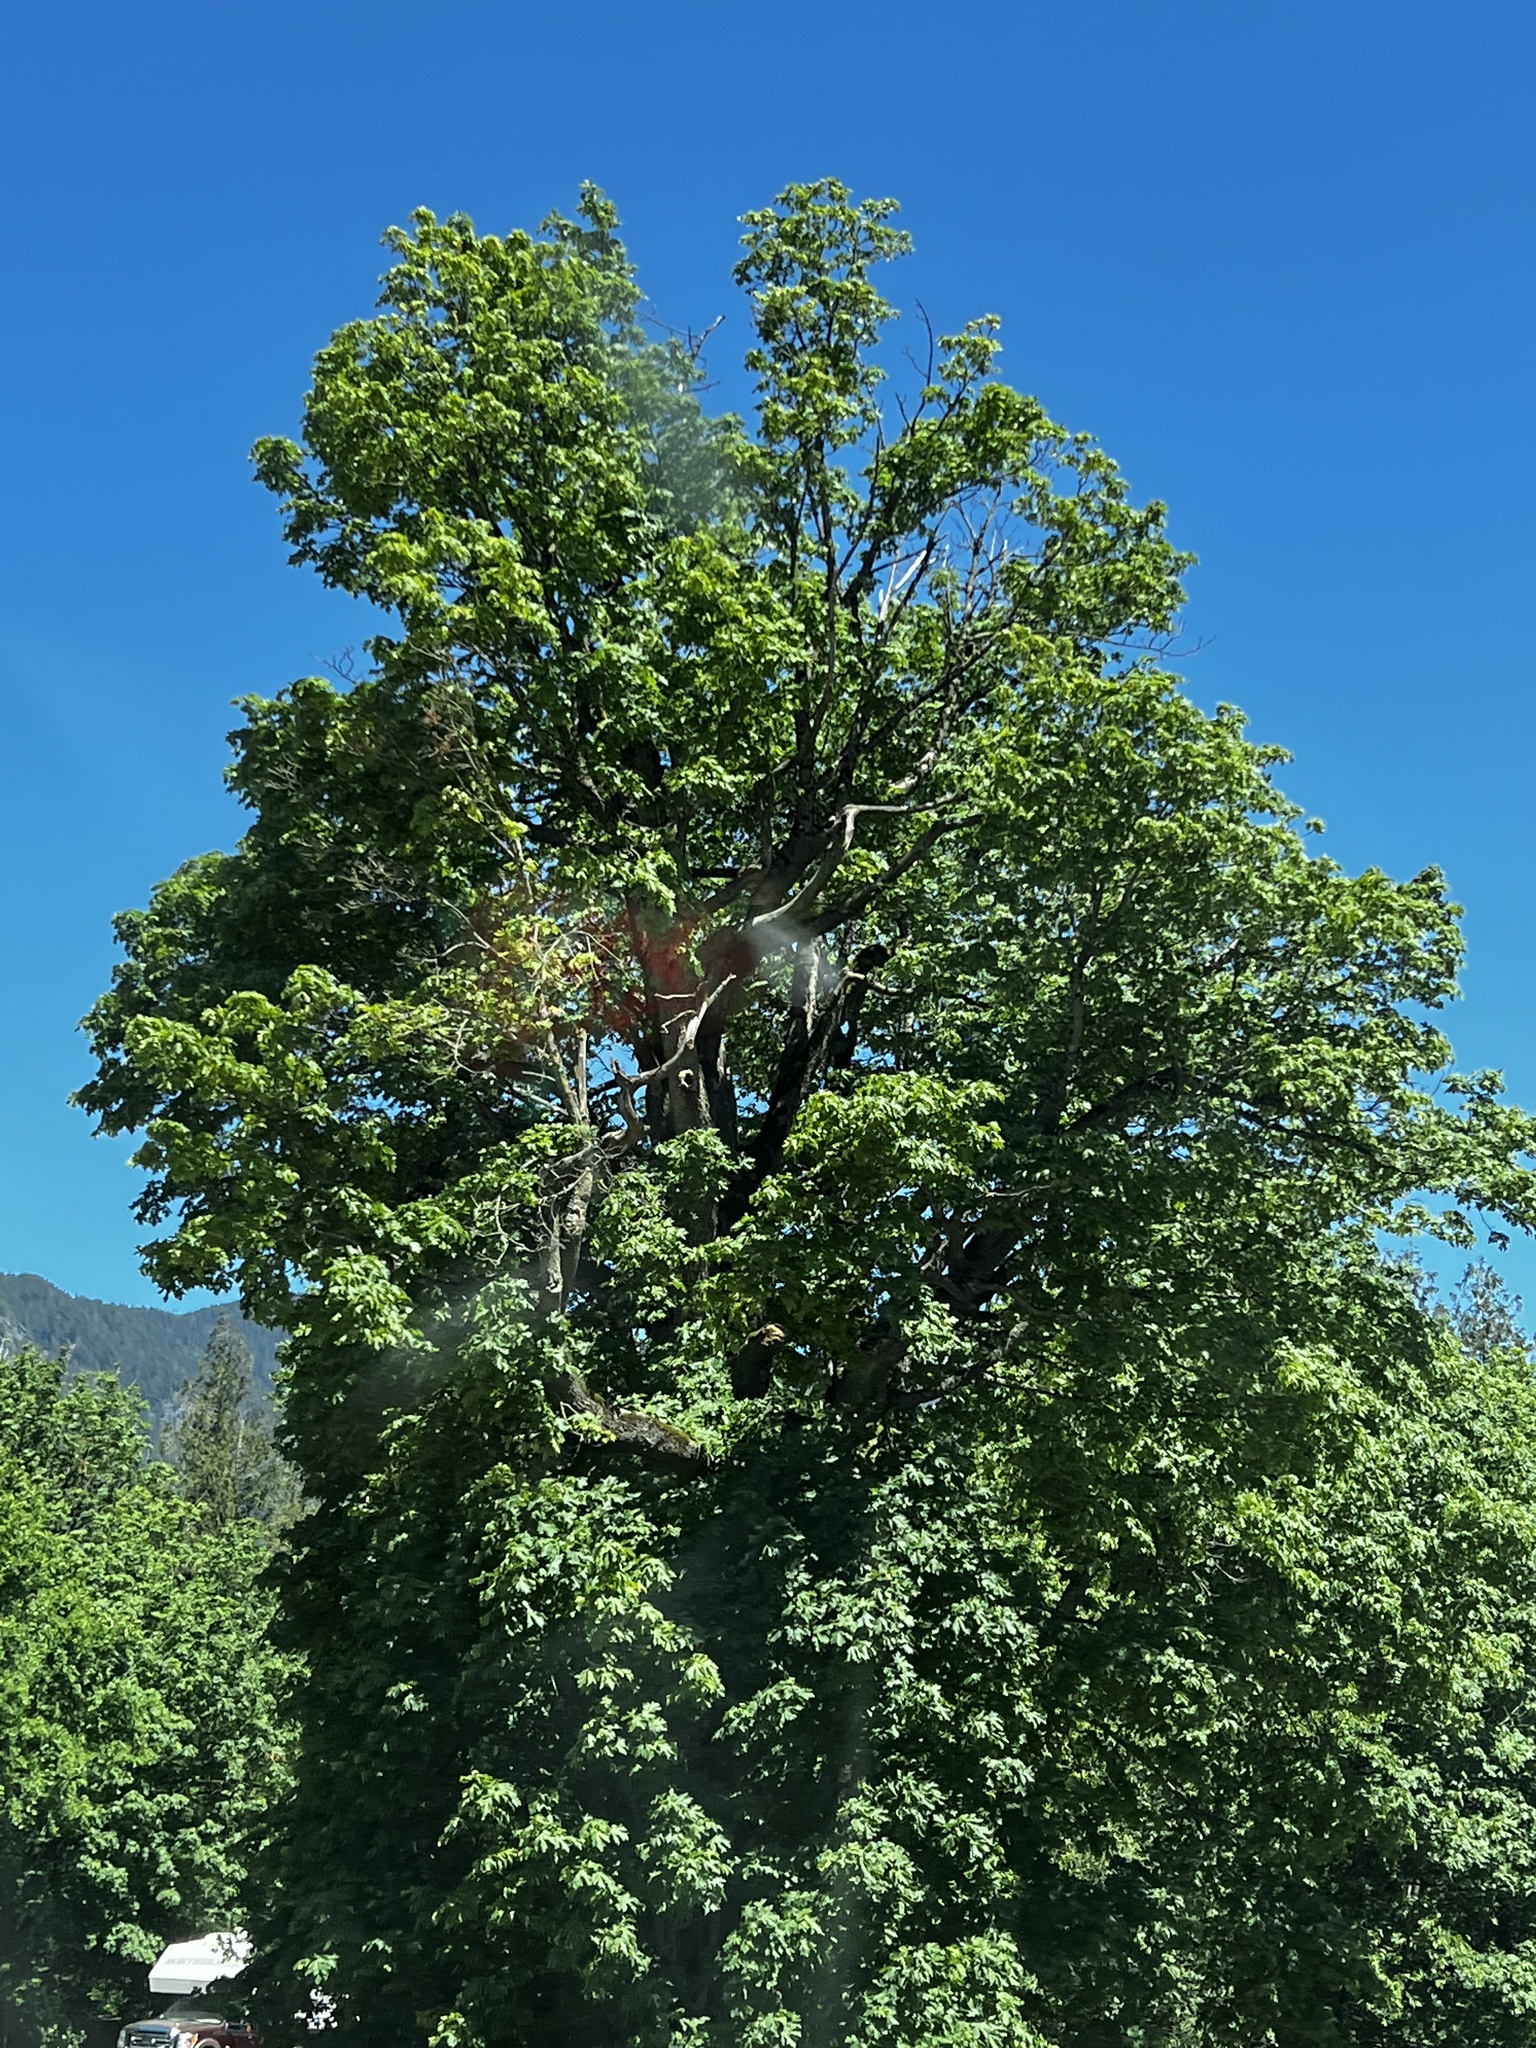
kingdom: Plantae
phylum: Tracheophyta
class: Magnoliopsida
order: Sapindales
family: Sapindaceae
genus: Acer
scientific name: Acer macrophyllum
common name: Oregon maple
